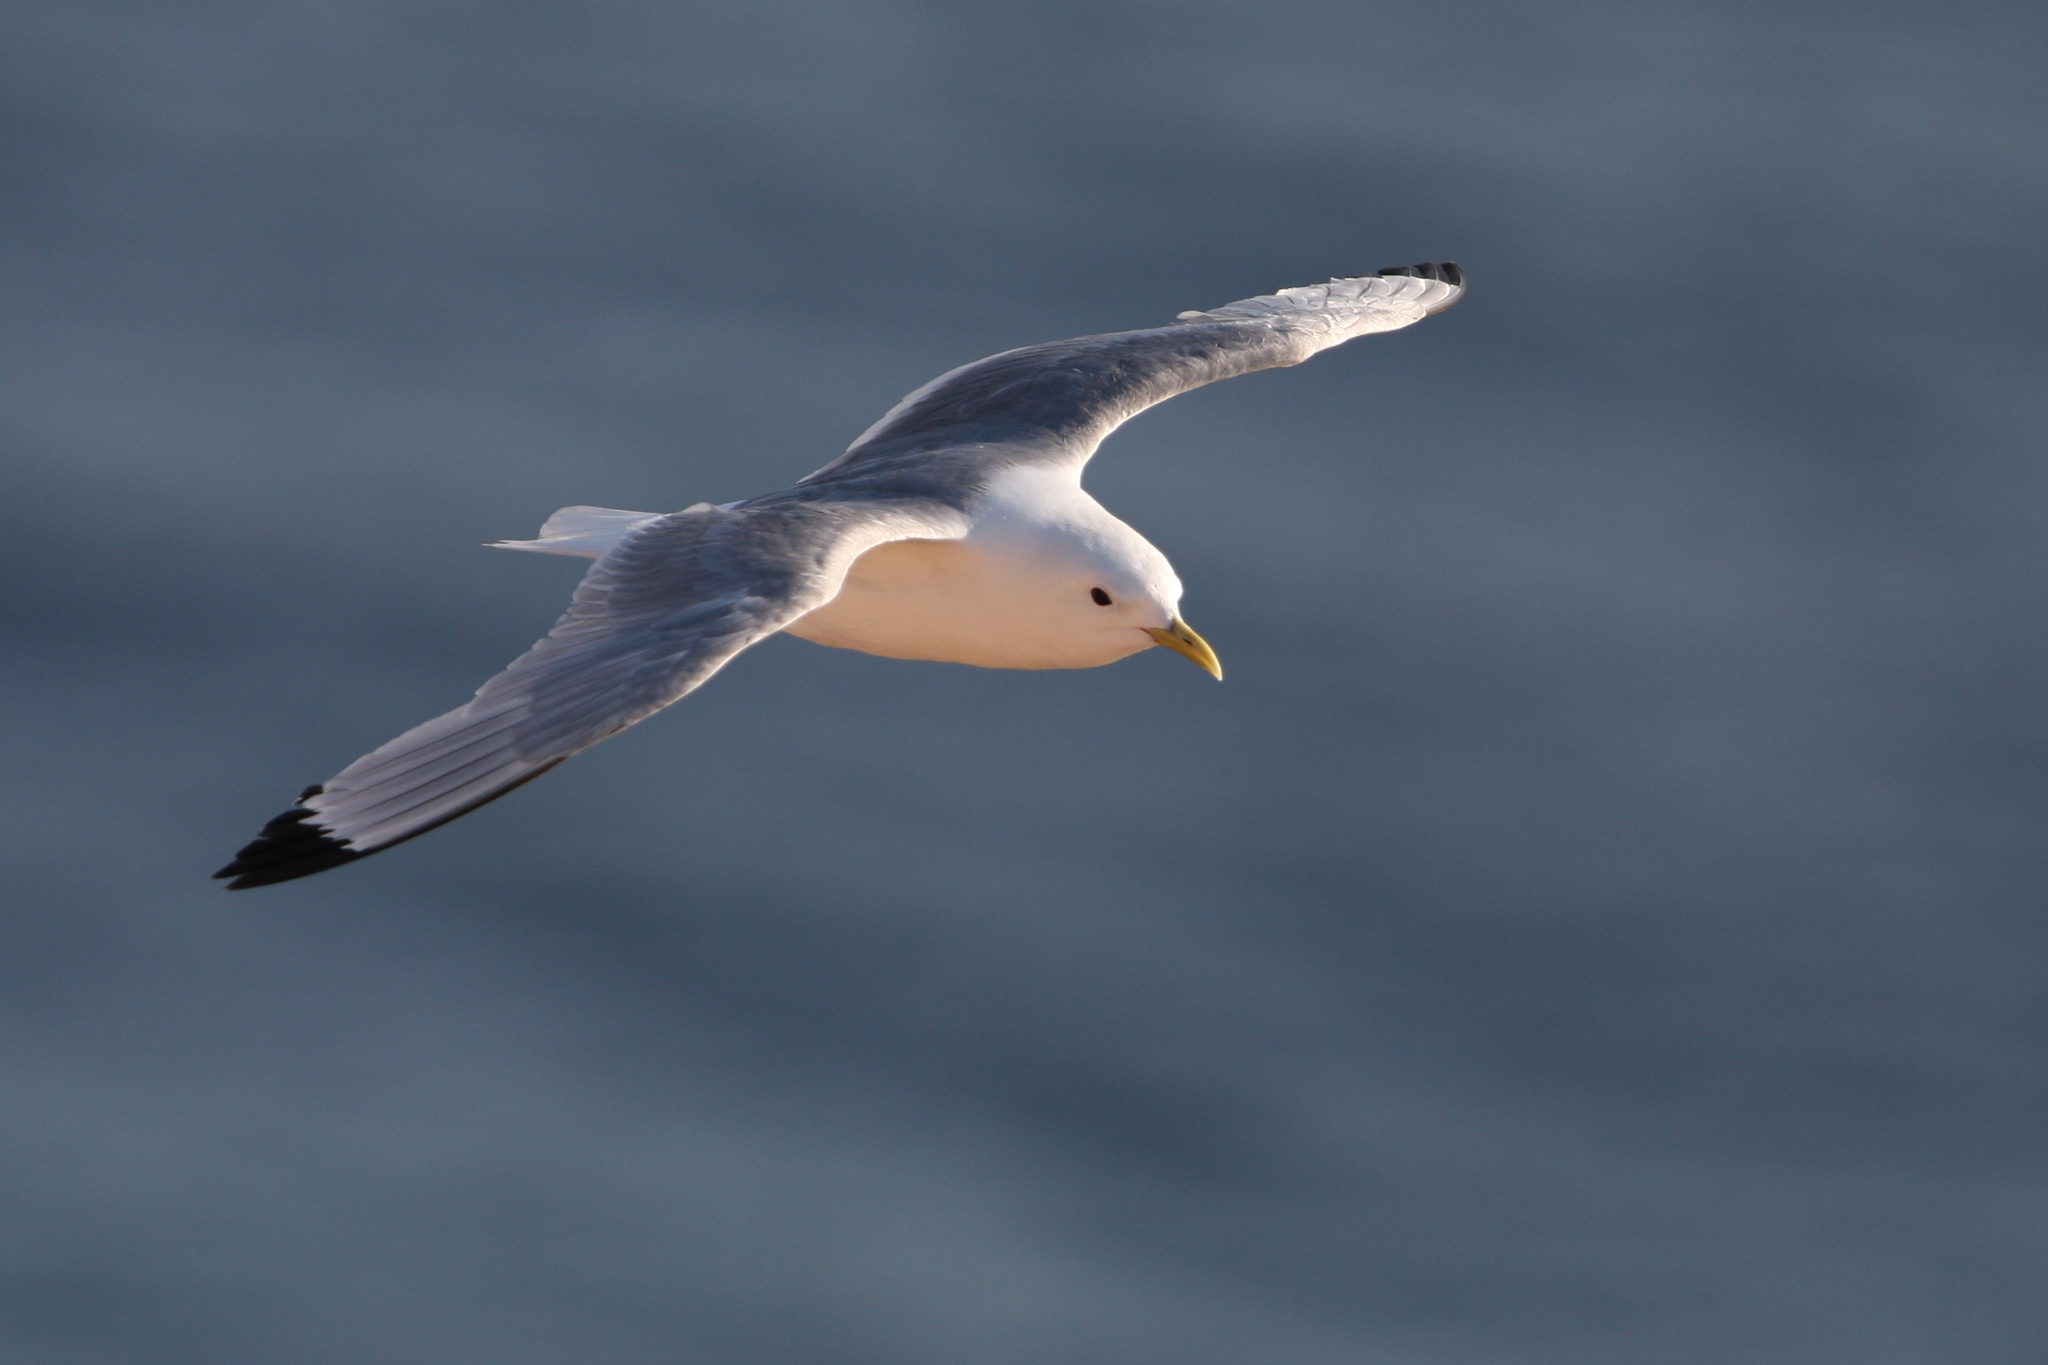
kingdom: Animalia
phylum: Chordata
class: Aves
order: Charadriiformes
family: Laridae
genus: Rissa
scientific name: Rissa tridactyla
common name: Black-legged kittiwake
